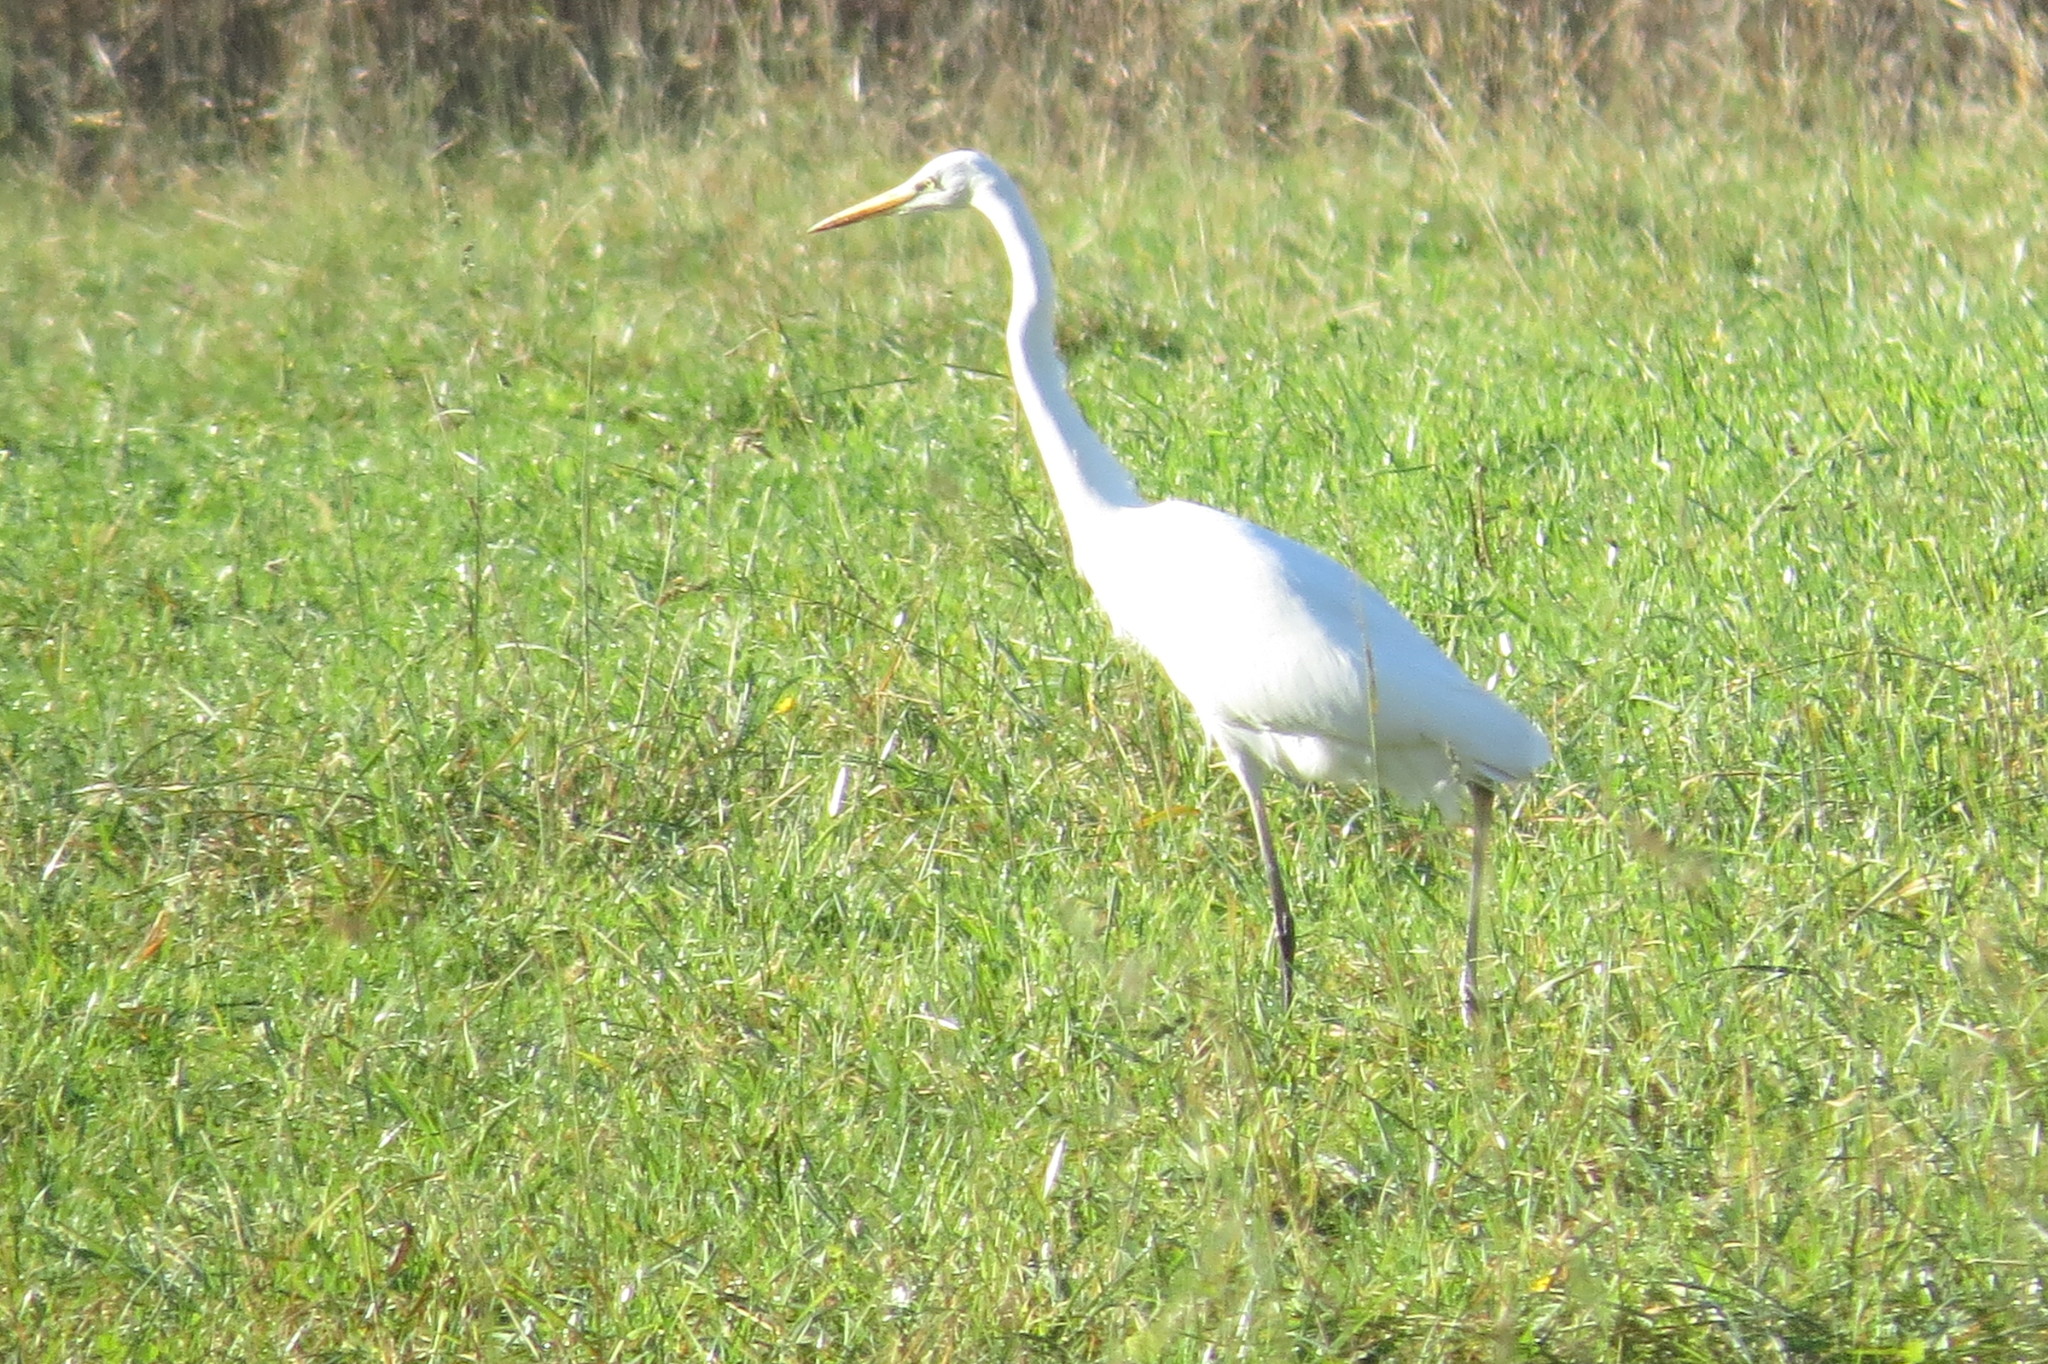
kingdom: Animalia
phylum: Chordata
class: Aves
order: Pelecaniformes
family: Ardeidae
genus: Ardea
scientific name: Ardea alba
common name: Great egret
